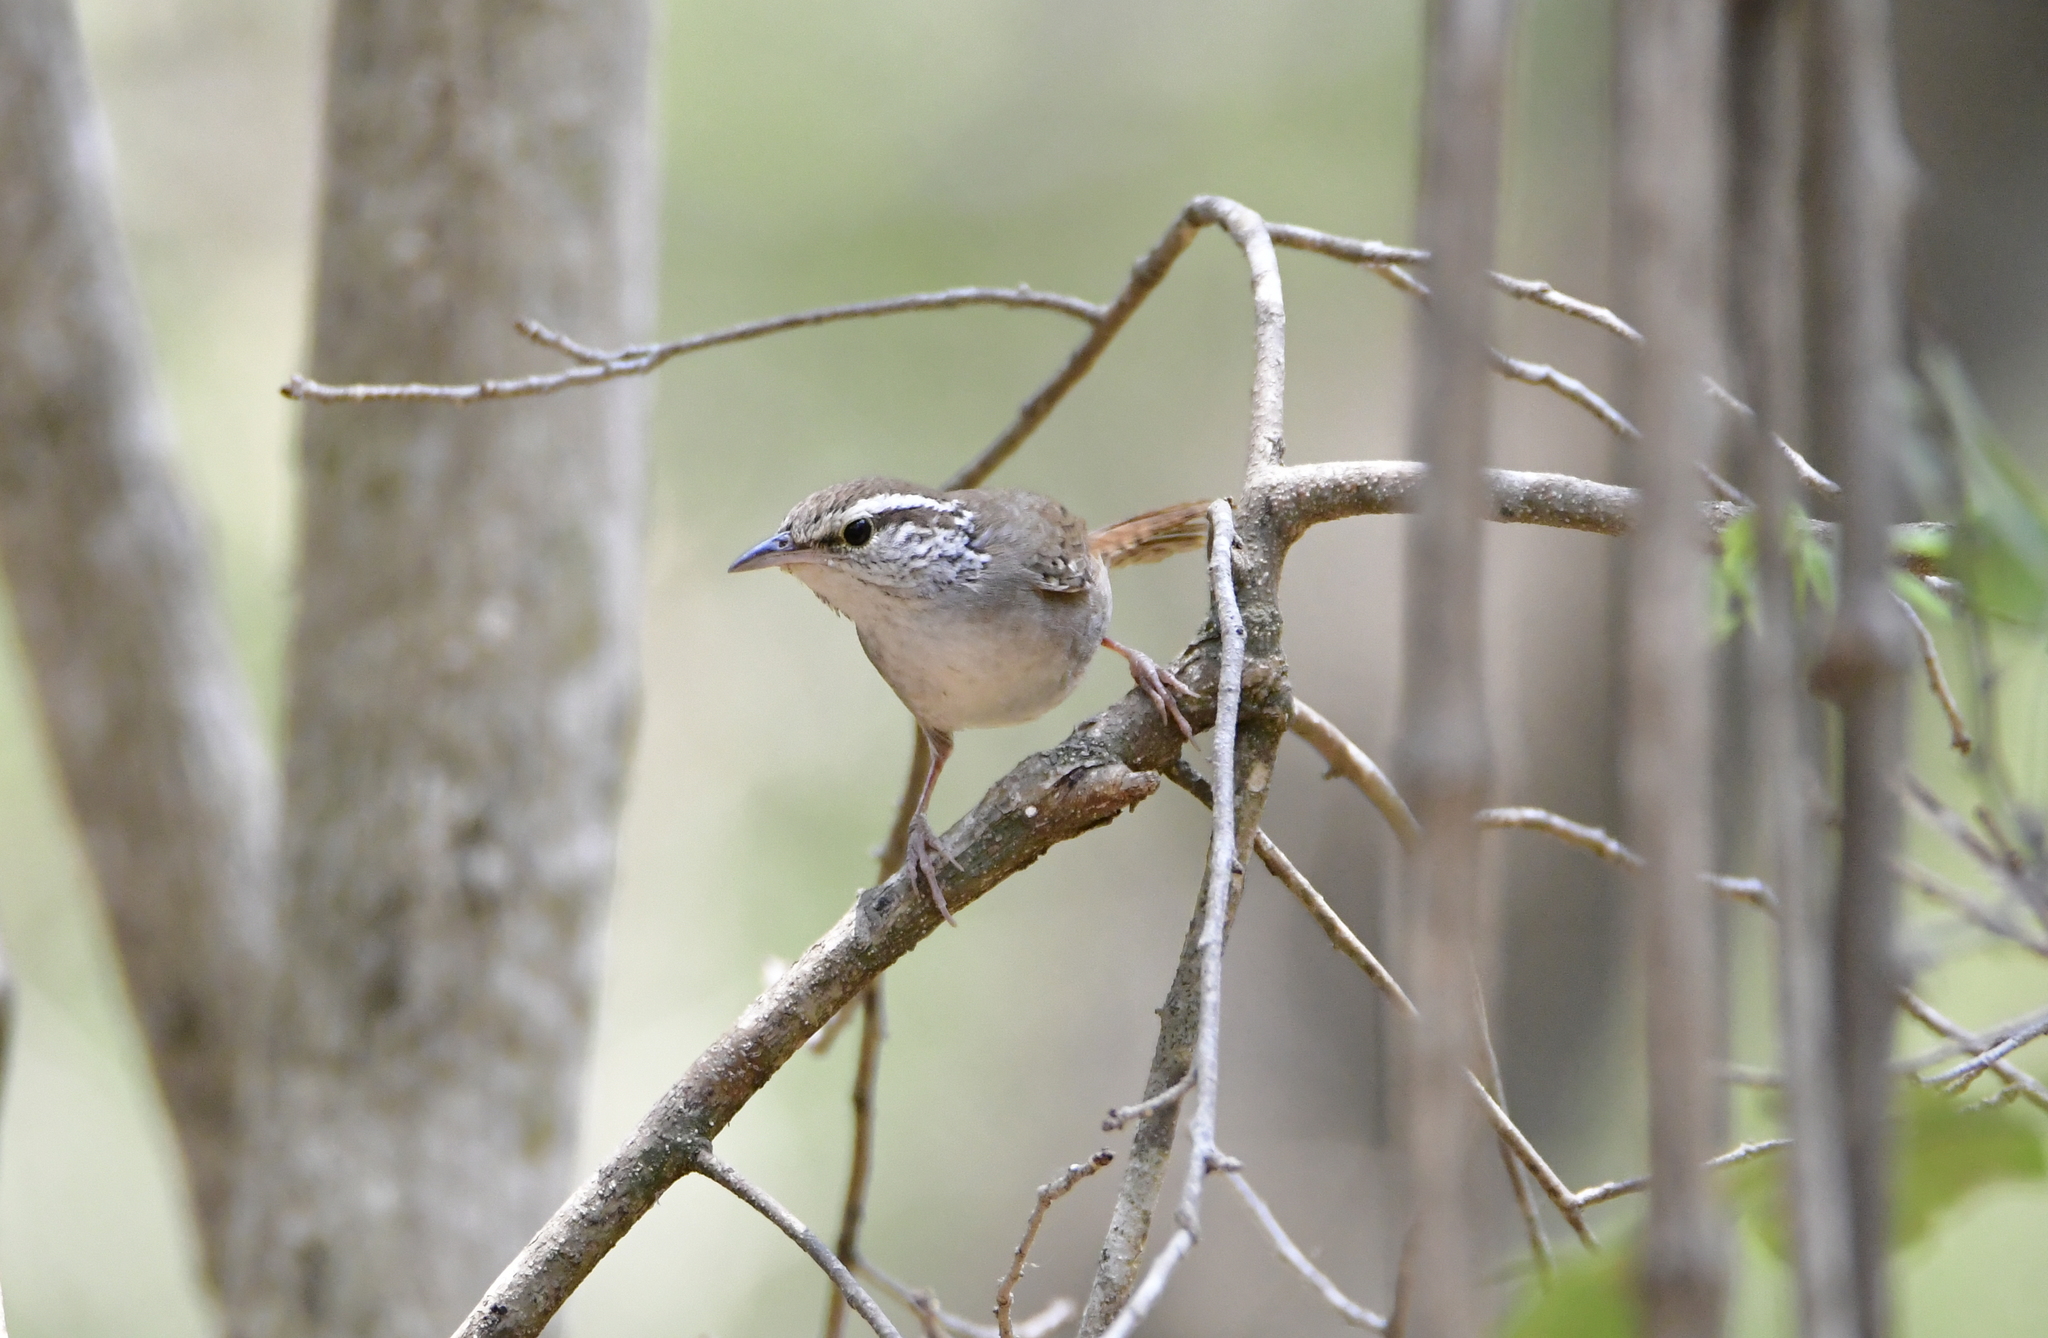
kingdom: Animalia
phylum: Chordata
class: Aves
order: Passeriformes
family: Troglodytidae
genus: Thryophilus
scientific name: Thryophilus sinaloa
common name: Sinaloa wren
